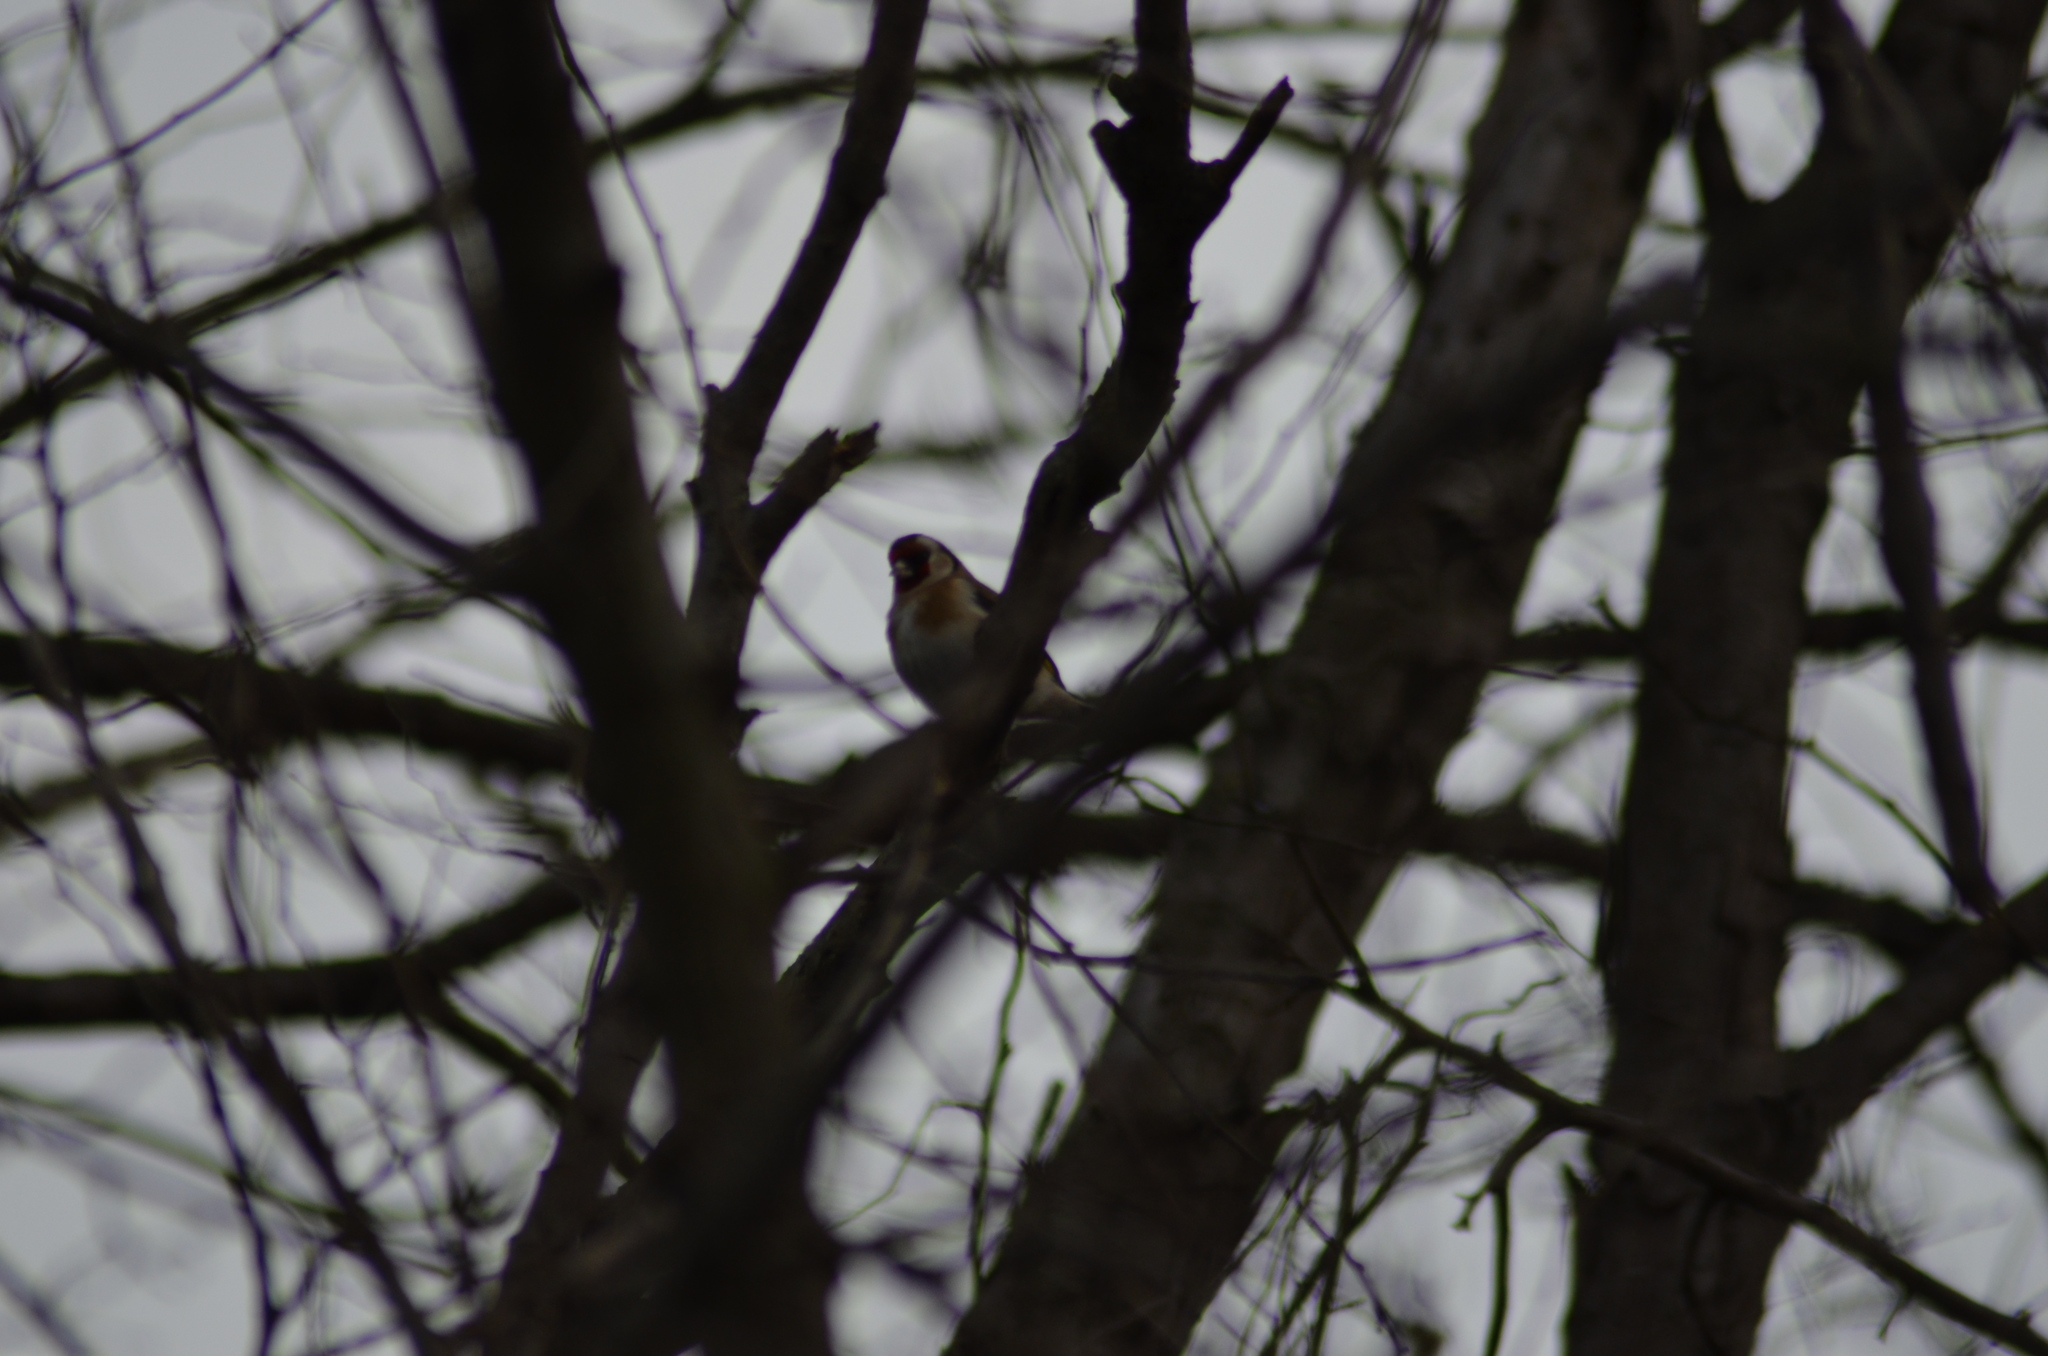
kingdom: Animalia
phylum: Chordata
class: Aves
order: Passeriformes
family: Fringillidae
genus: Carduelis
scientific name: Carduelis carduelis
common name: European goldfinch
